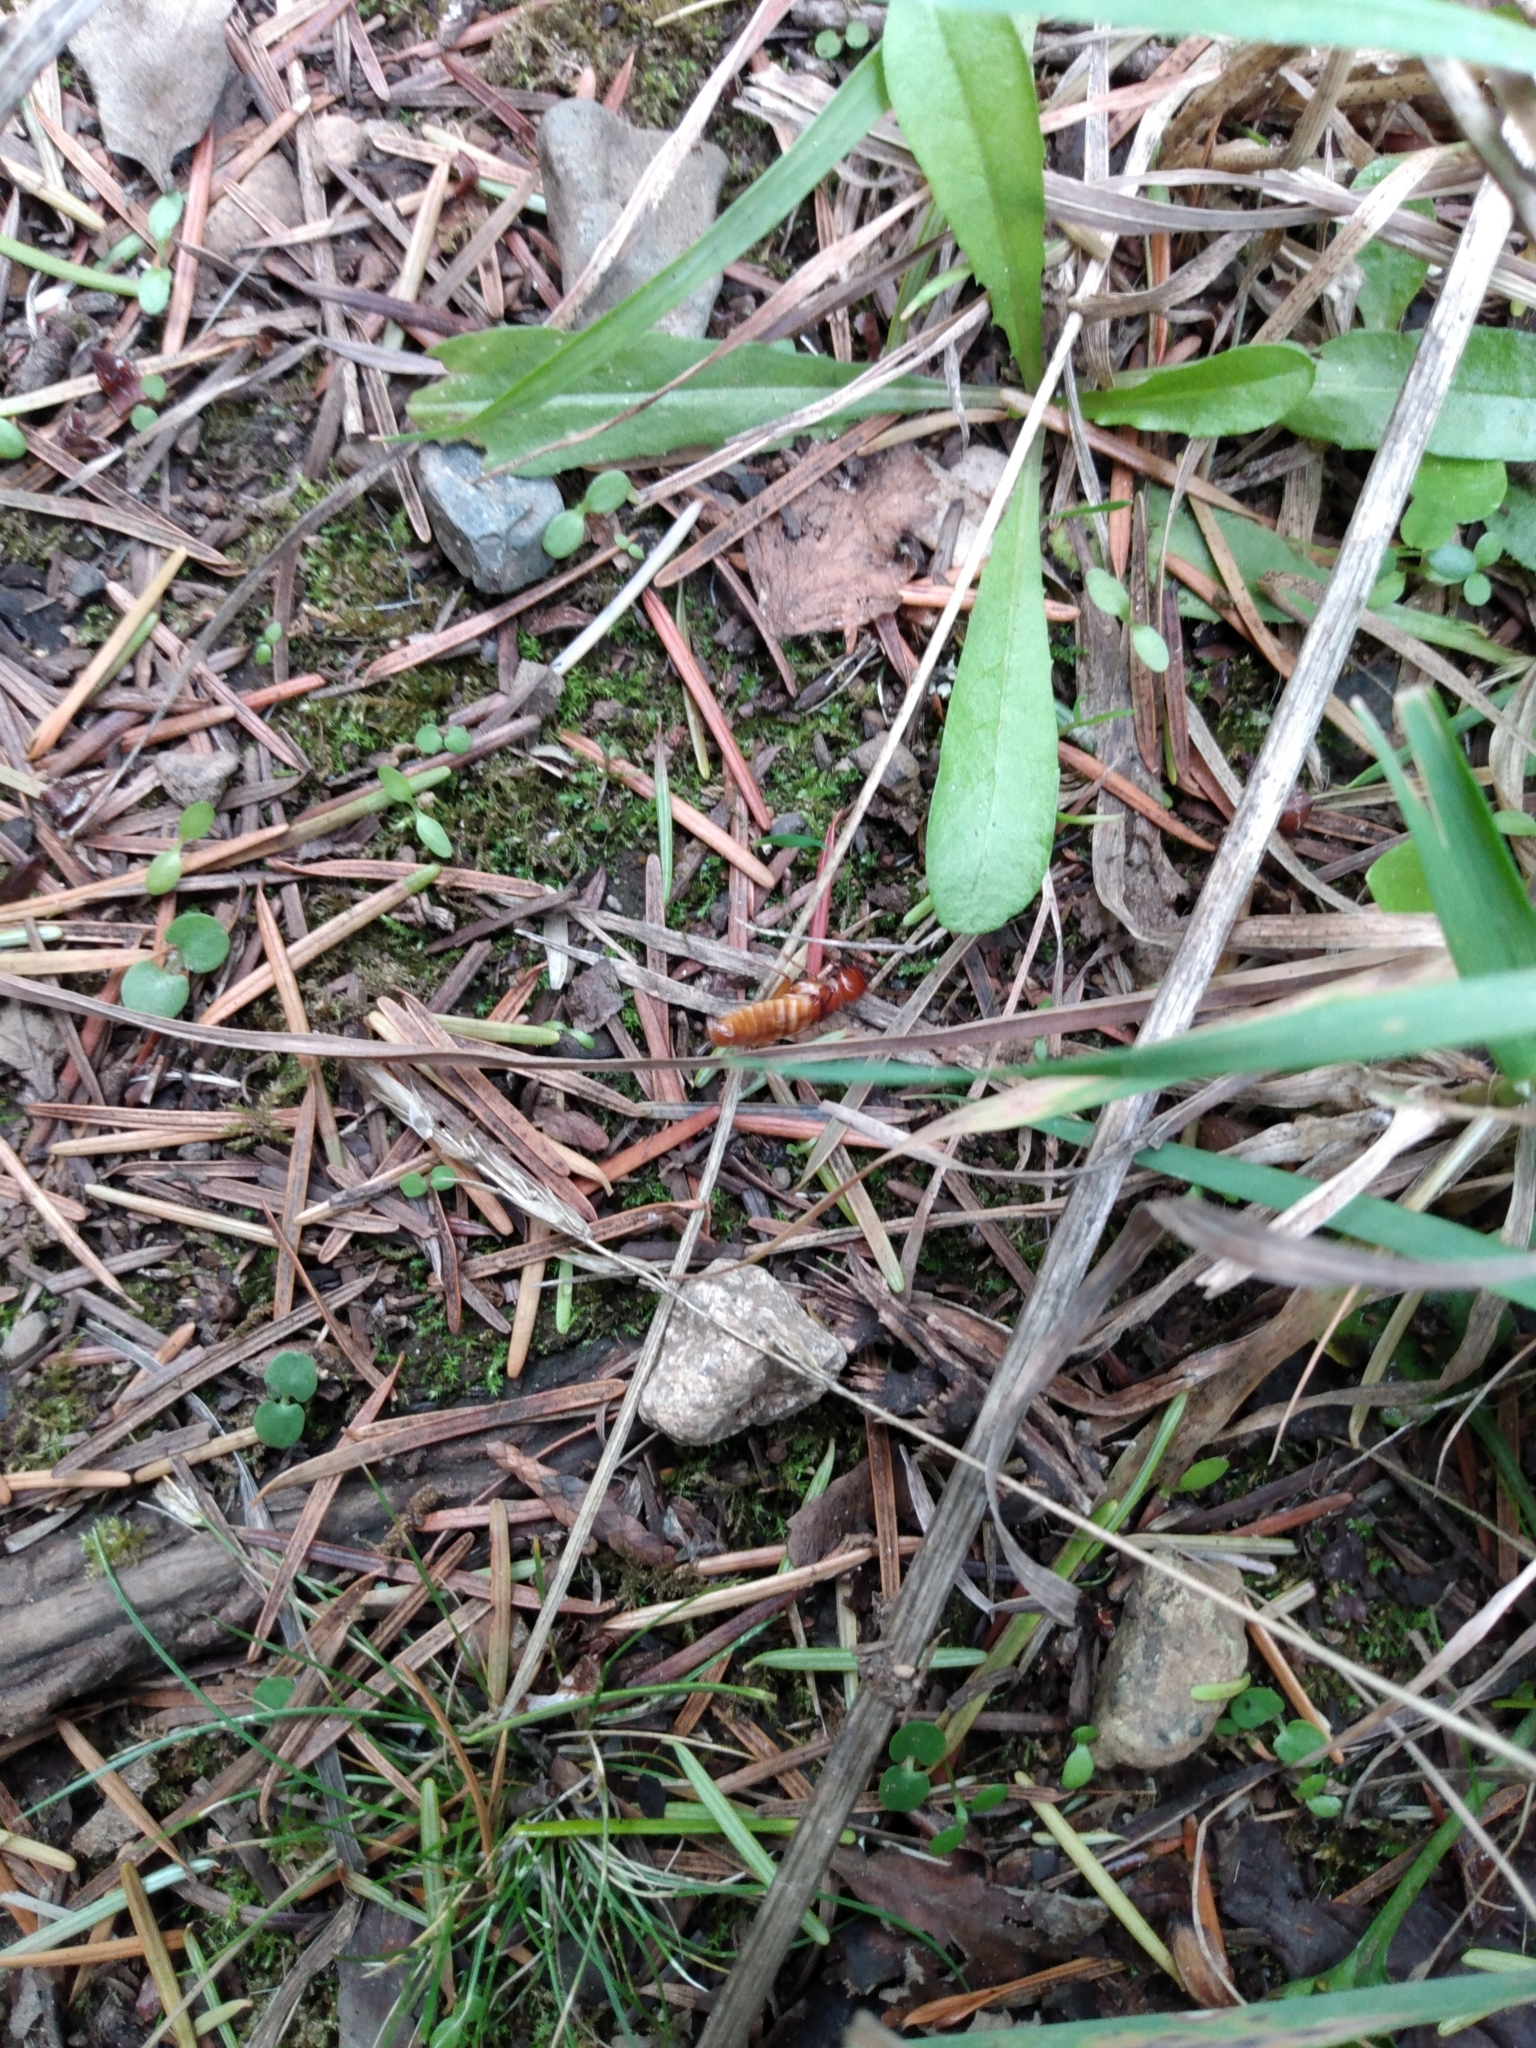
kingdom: Animalia
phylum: Arthropoda
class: Insecta
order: Blattodea
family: Archotermopsidae
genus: Zootermopsis
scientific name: Zootermopsis angusticollis
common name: Rottenwood termite
